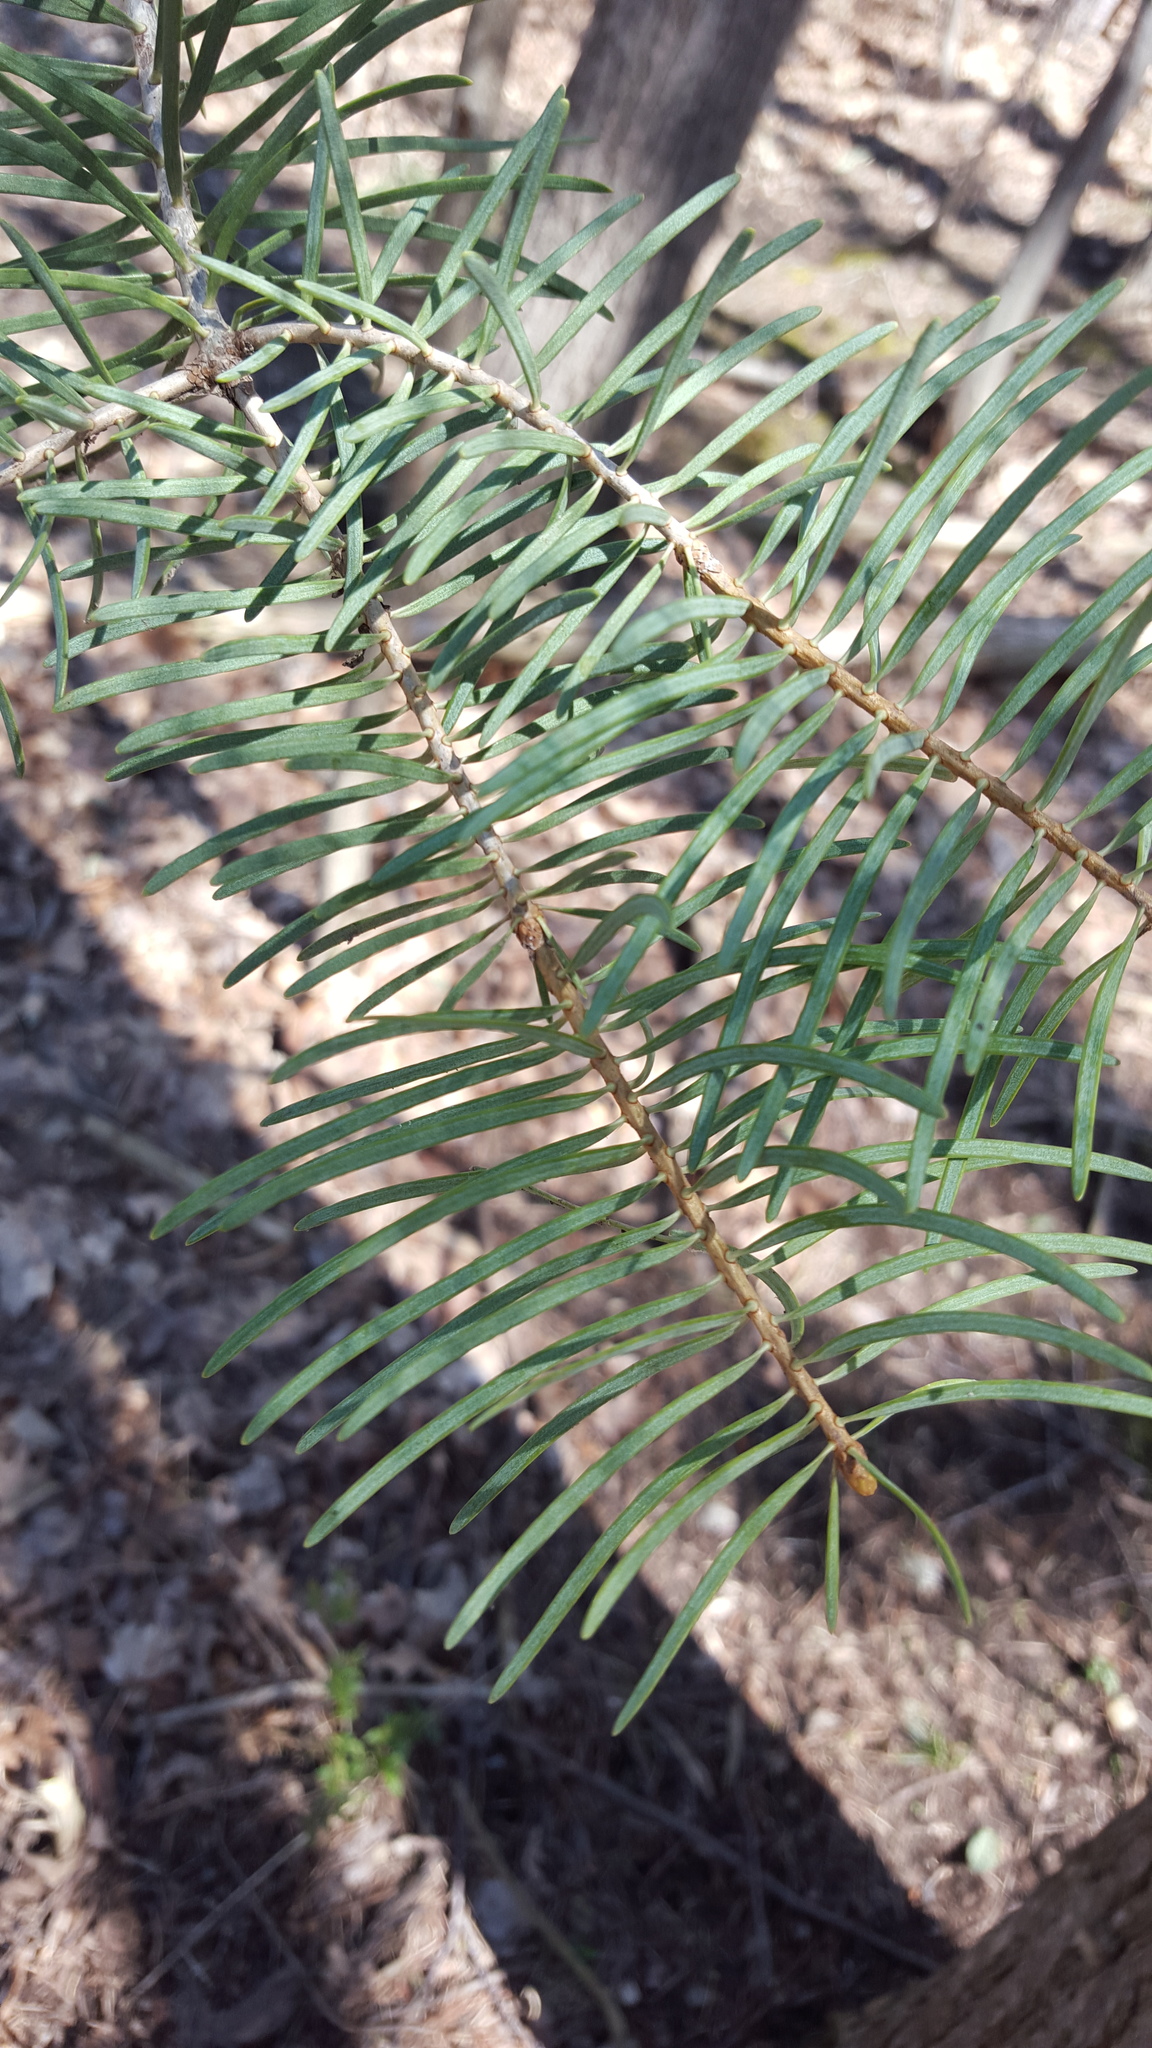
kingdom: Plantae
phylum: Tracheophyta
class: Pinopsida
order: Pinales
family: Pinaceae
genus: Abies
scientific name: Abies concolor
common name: Colorado fir
